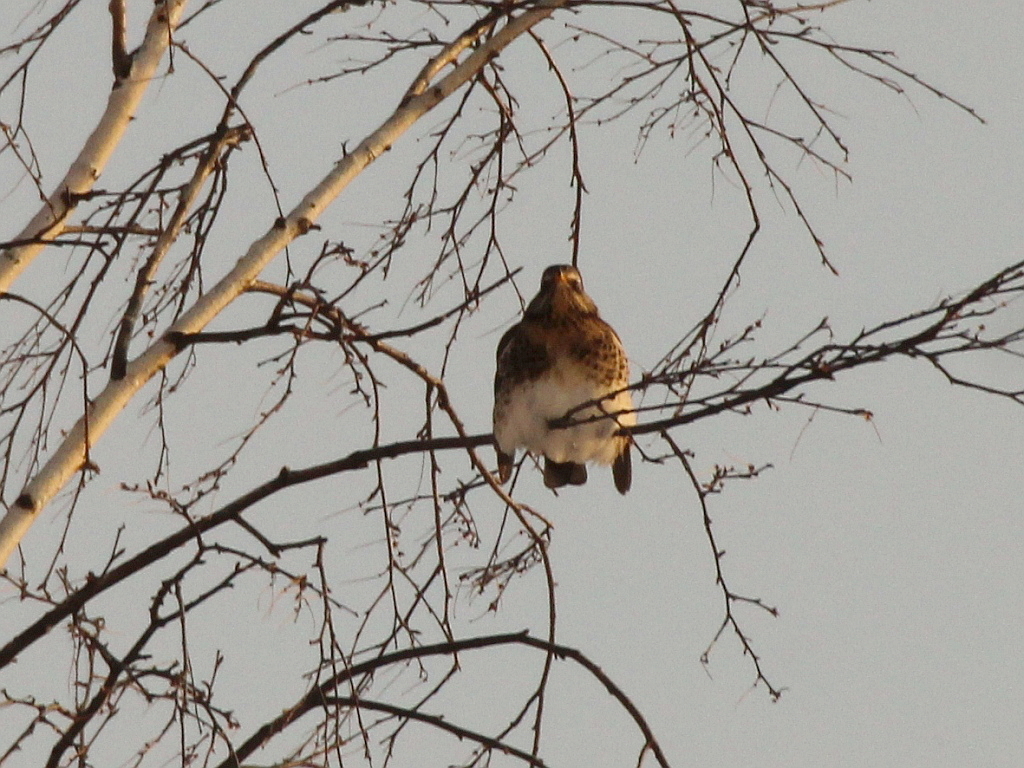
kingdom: Animalia
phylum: Chordata
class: Aves
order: Passeriformes
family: Turdidae
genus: Turdus
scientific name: Turdus pilaris
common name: Fieldfare
